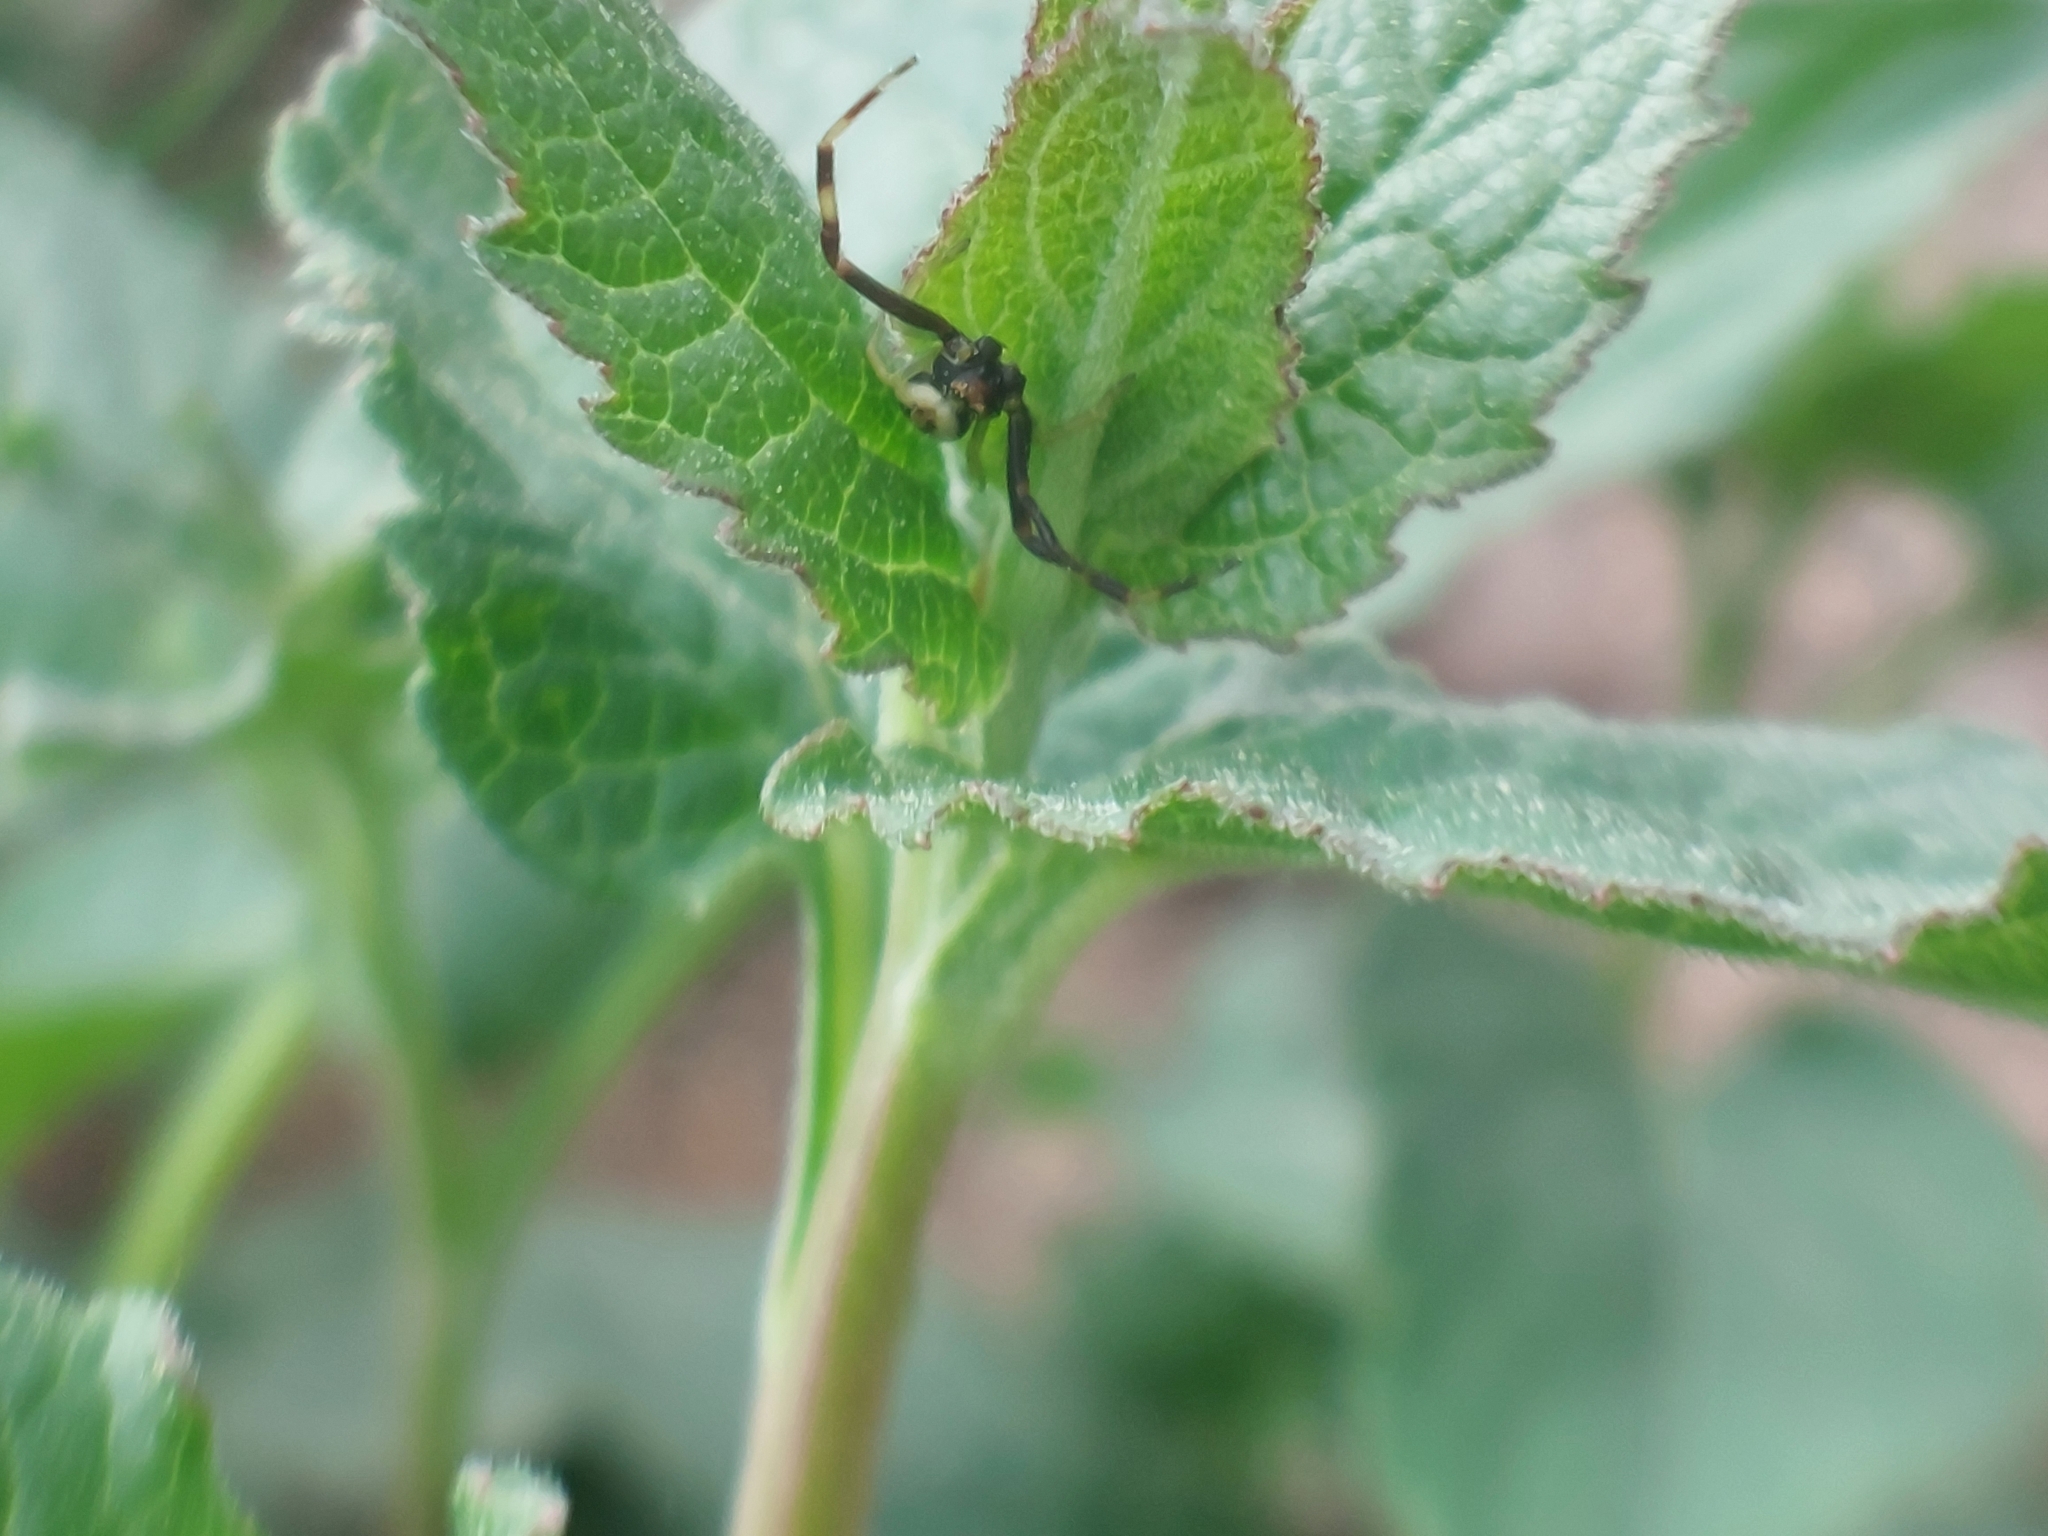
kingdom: Animalia
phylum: Arthropoda
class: Arachnida
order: Araneae
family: Thomisidae
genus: Misumena
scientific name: Misumena vatia
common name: Goldenrod crab spider
